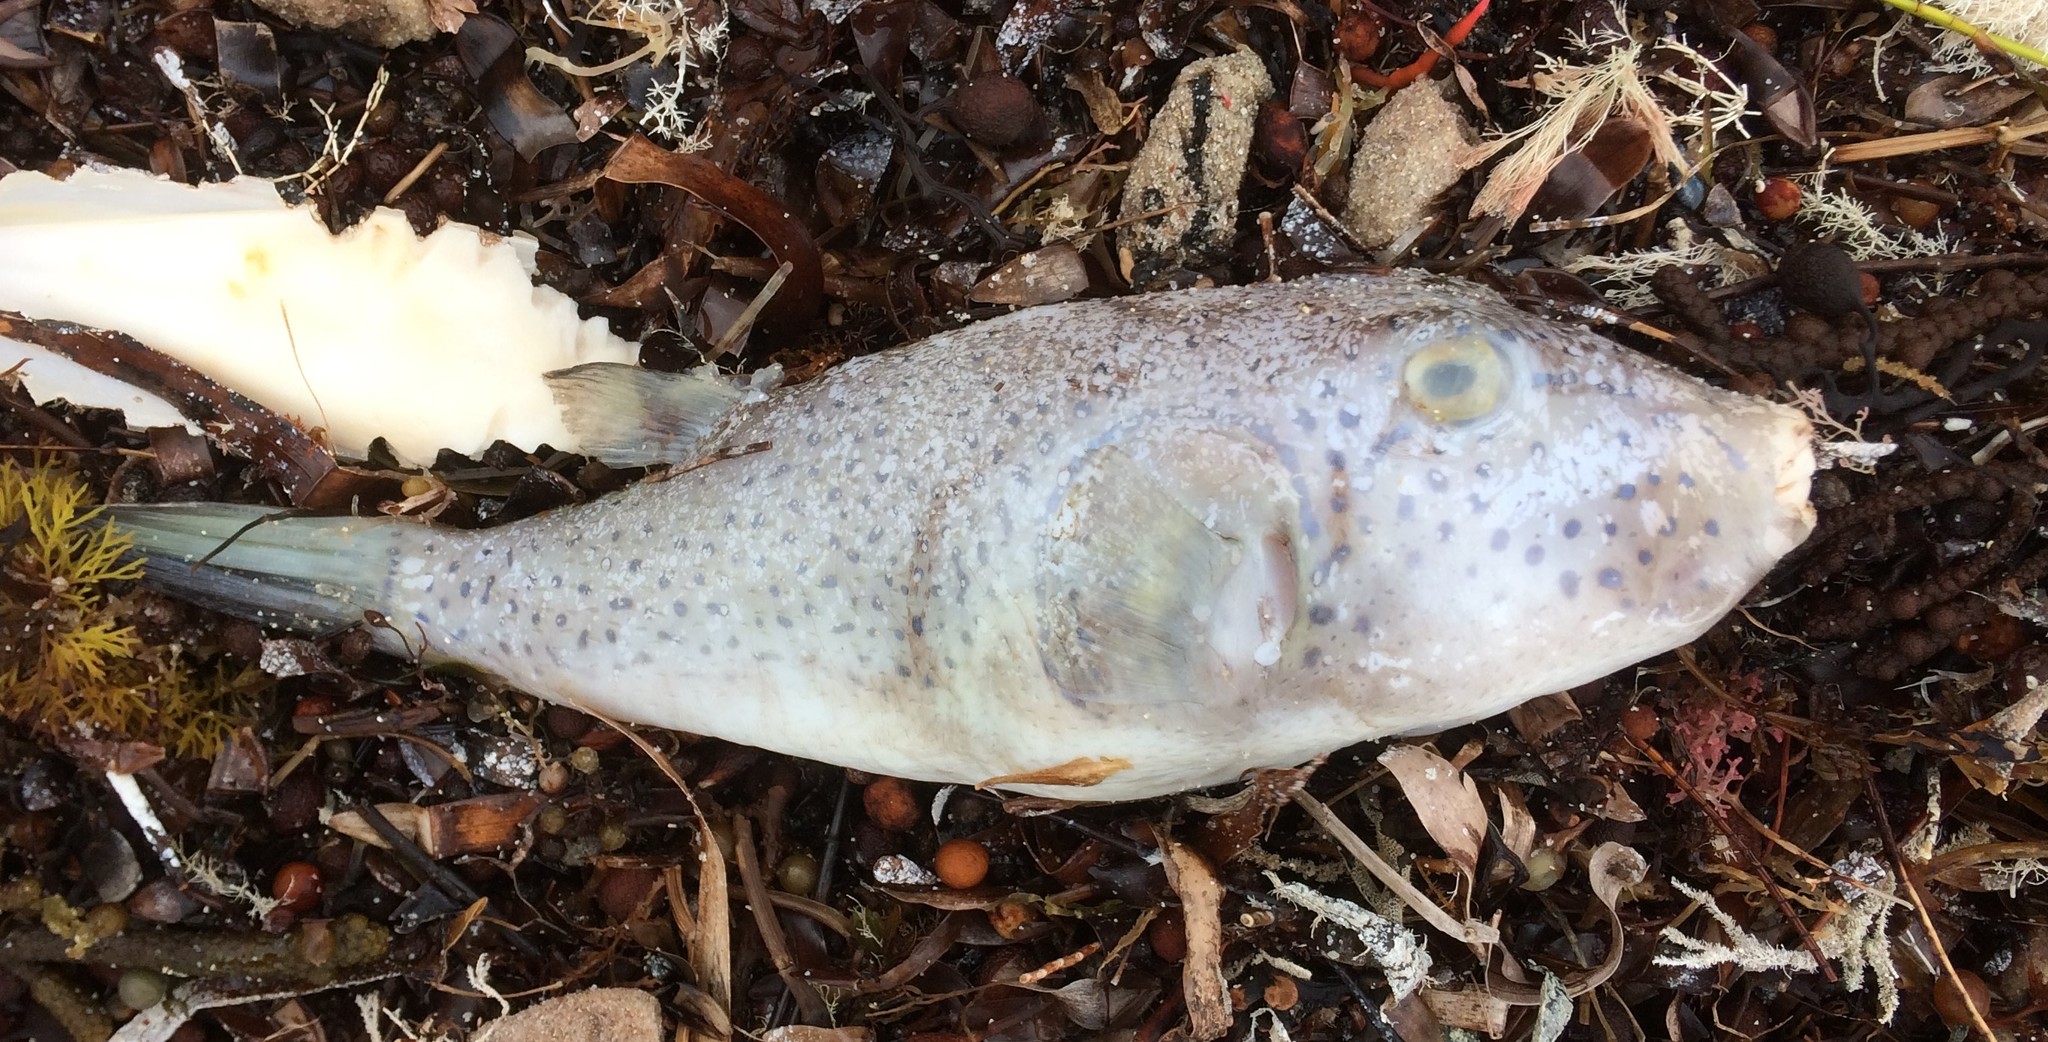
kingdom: Animalia
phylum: Chordata
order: Tetraodontiformes
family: Tetraodontidae
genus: Omegophora
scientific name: Omegophora armilla
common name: Ringed pufferfish
